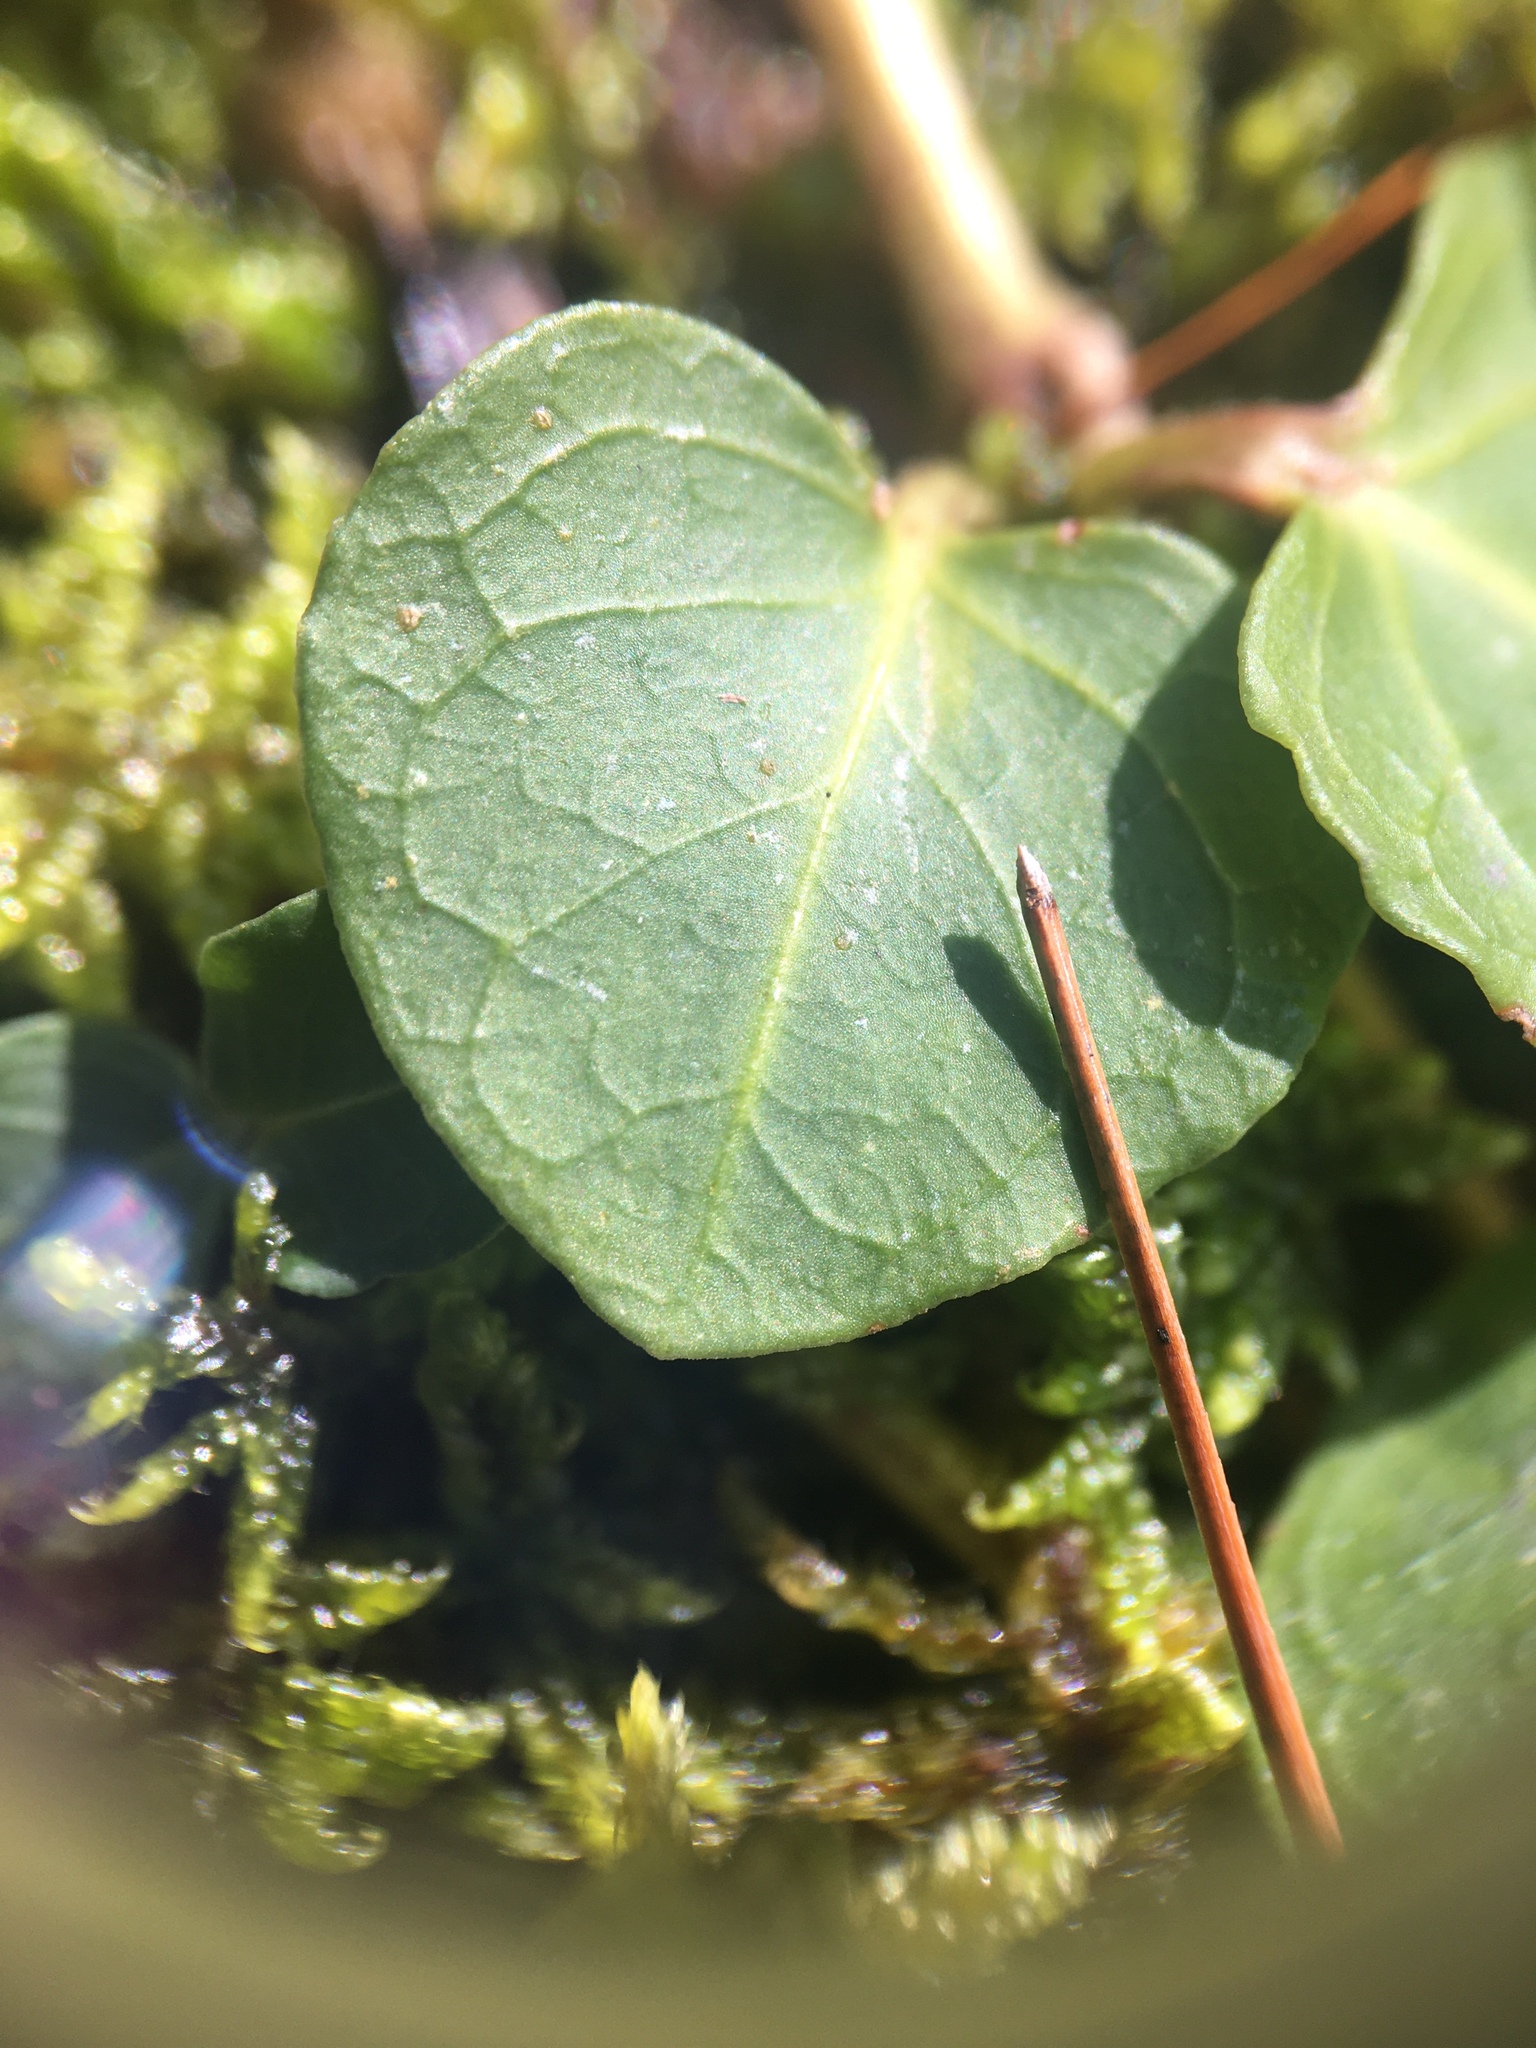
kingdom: Plantae
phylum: Tracheophyta
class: Magnoliopsida
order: Gentianales
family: Rubiaceae
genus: Mitchella
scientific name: Mitchella repens
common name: Partridge-berry
